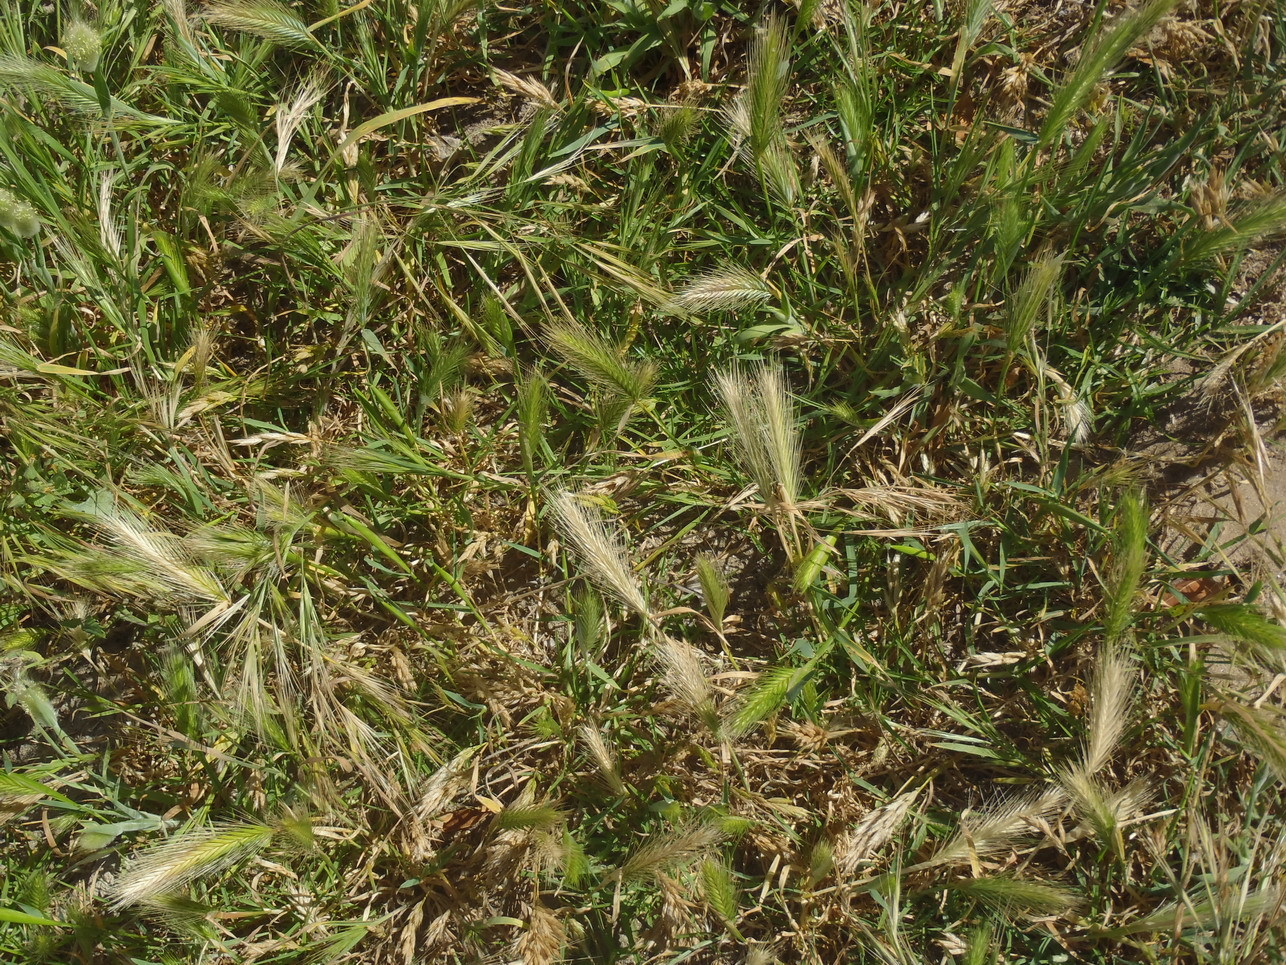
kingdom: Plantae
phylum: Tracheophyta
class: Liliopsida
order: Poales
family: Poaceae
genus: Hordeum
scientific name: Hordeum murinum
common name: Wall barley
